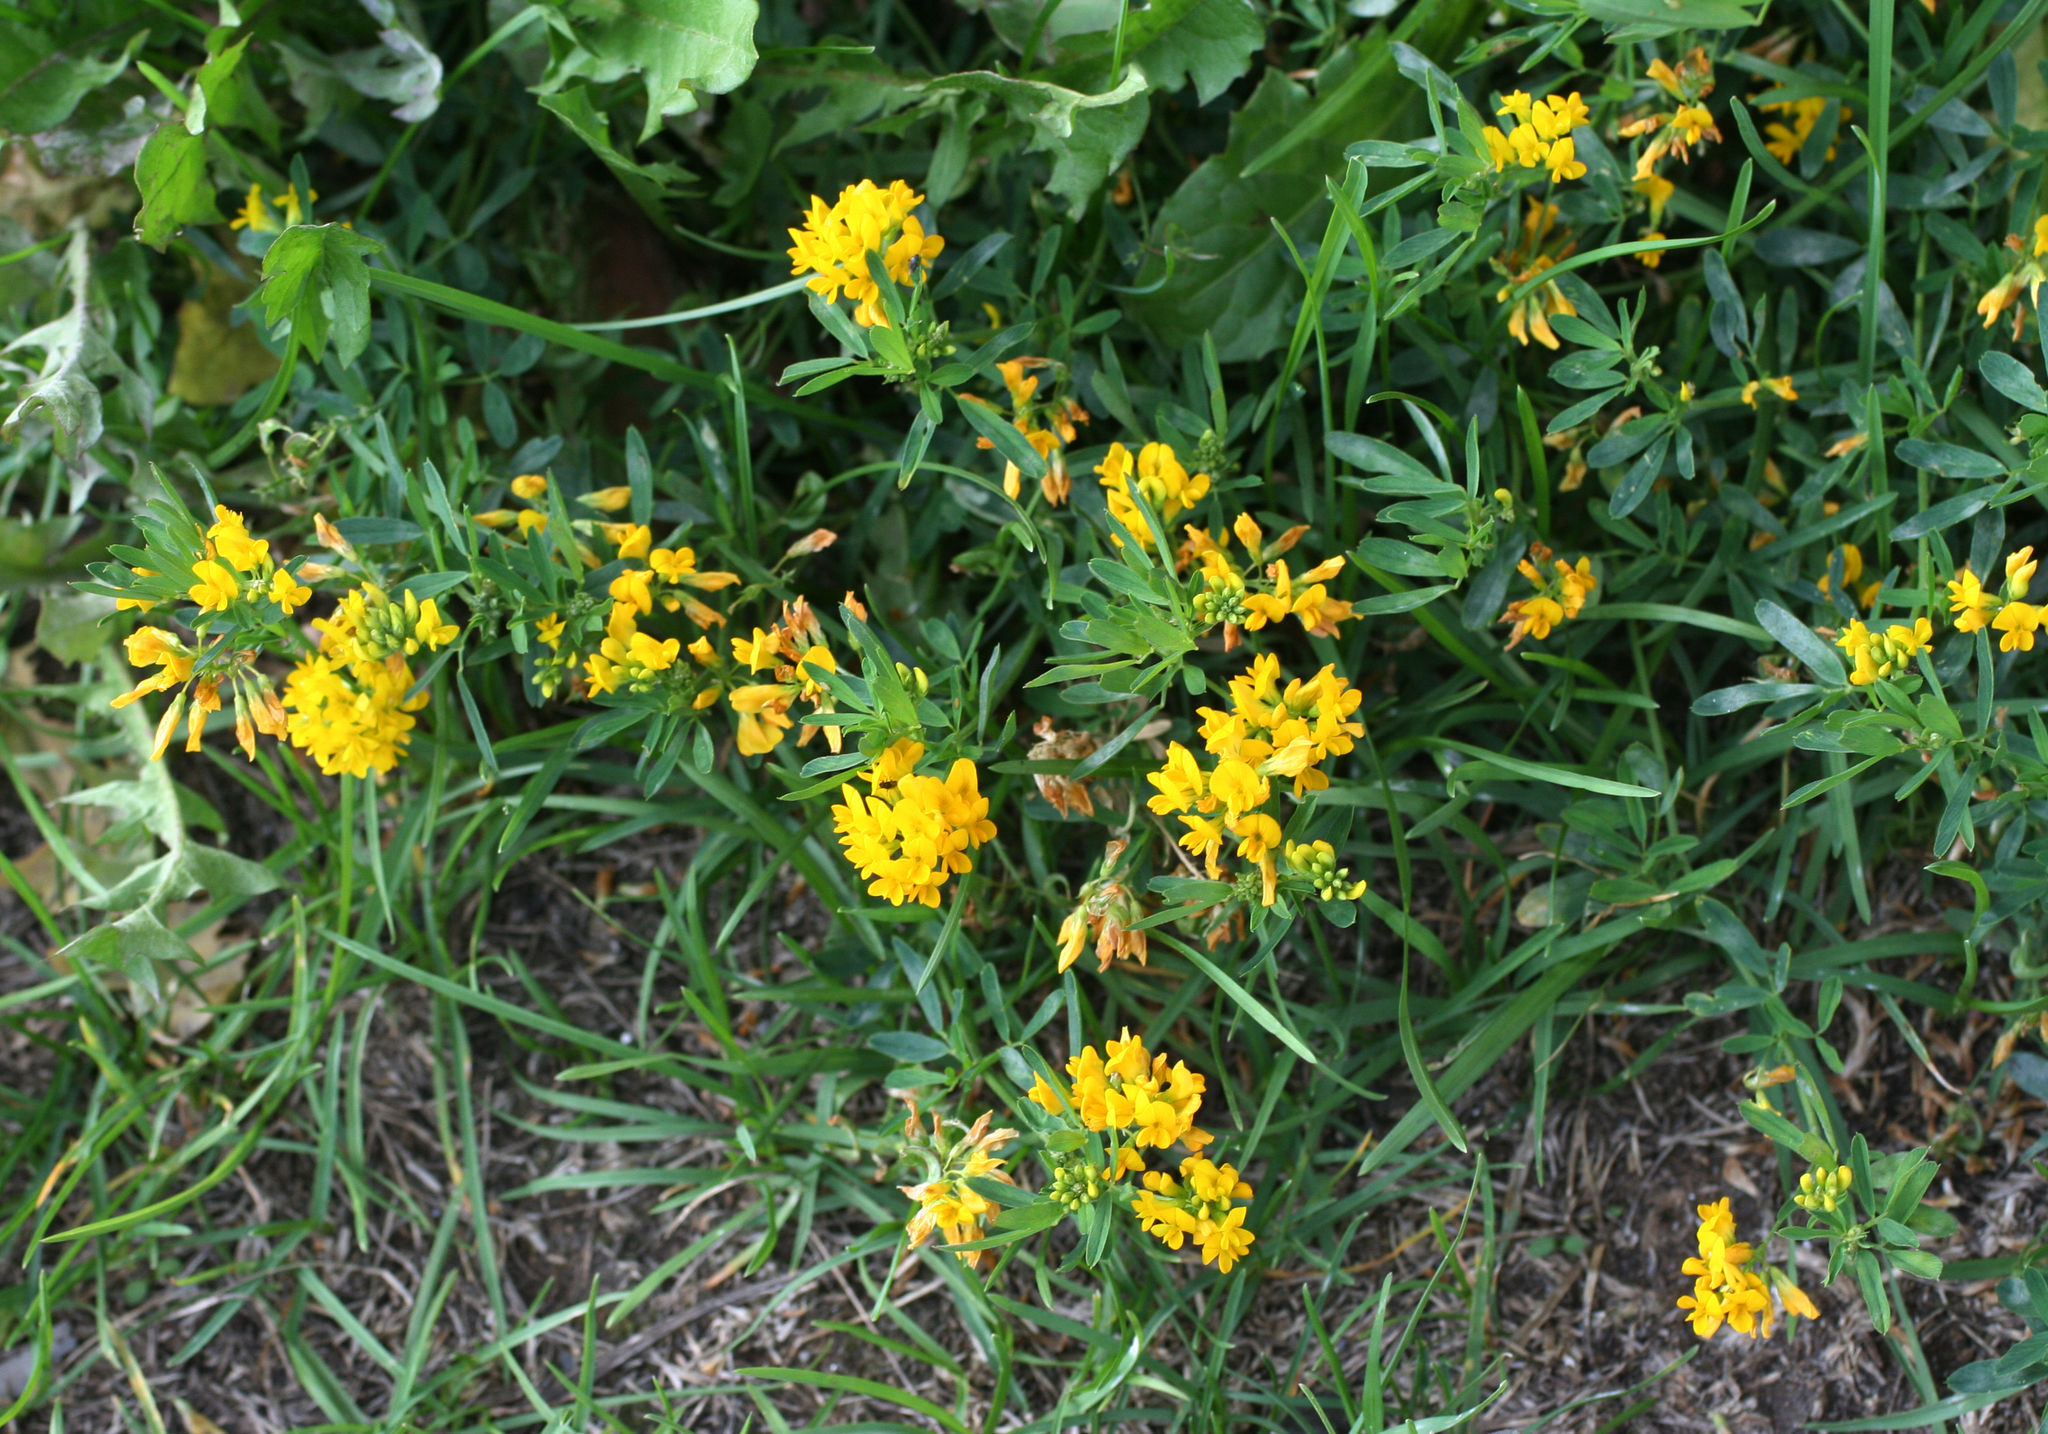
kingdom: Plantae
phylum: Tracheophyta
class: Magnoliopsida
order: Fabales
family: Fabaceae
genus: Medicago
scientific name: Medicago falcata
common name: Sickle medick
